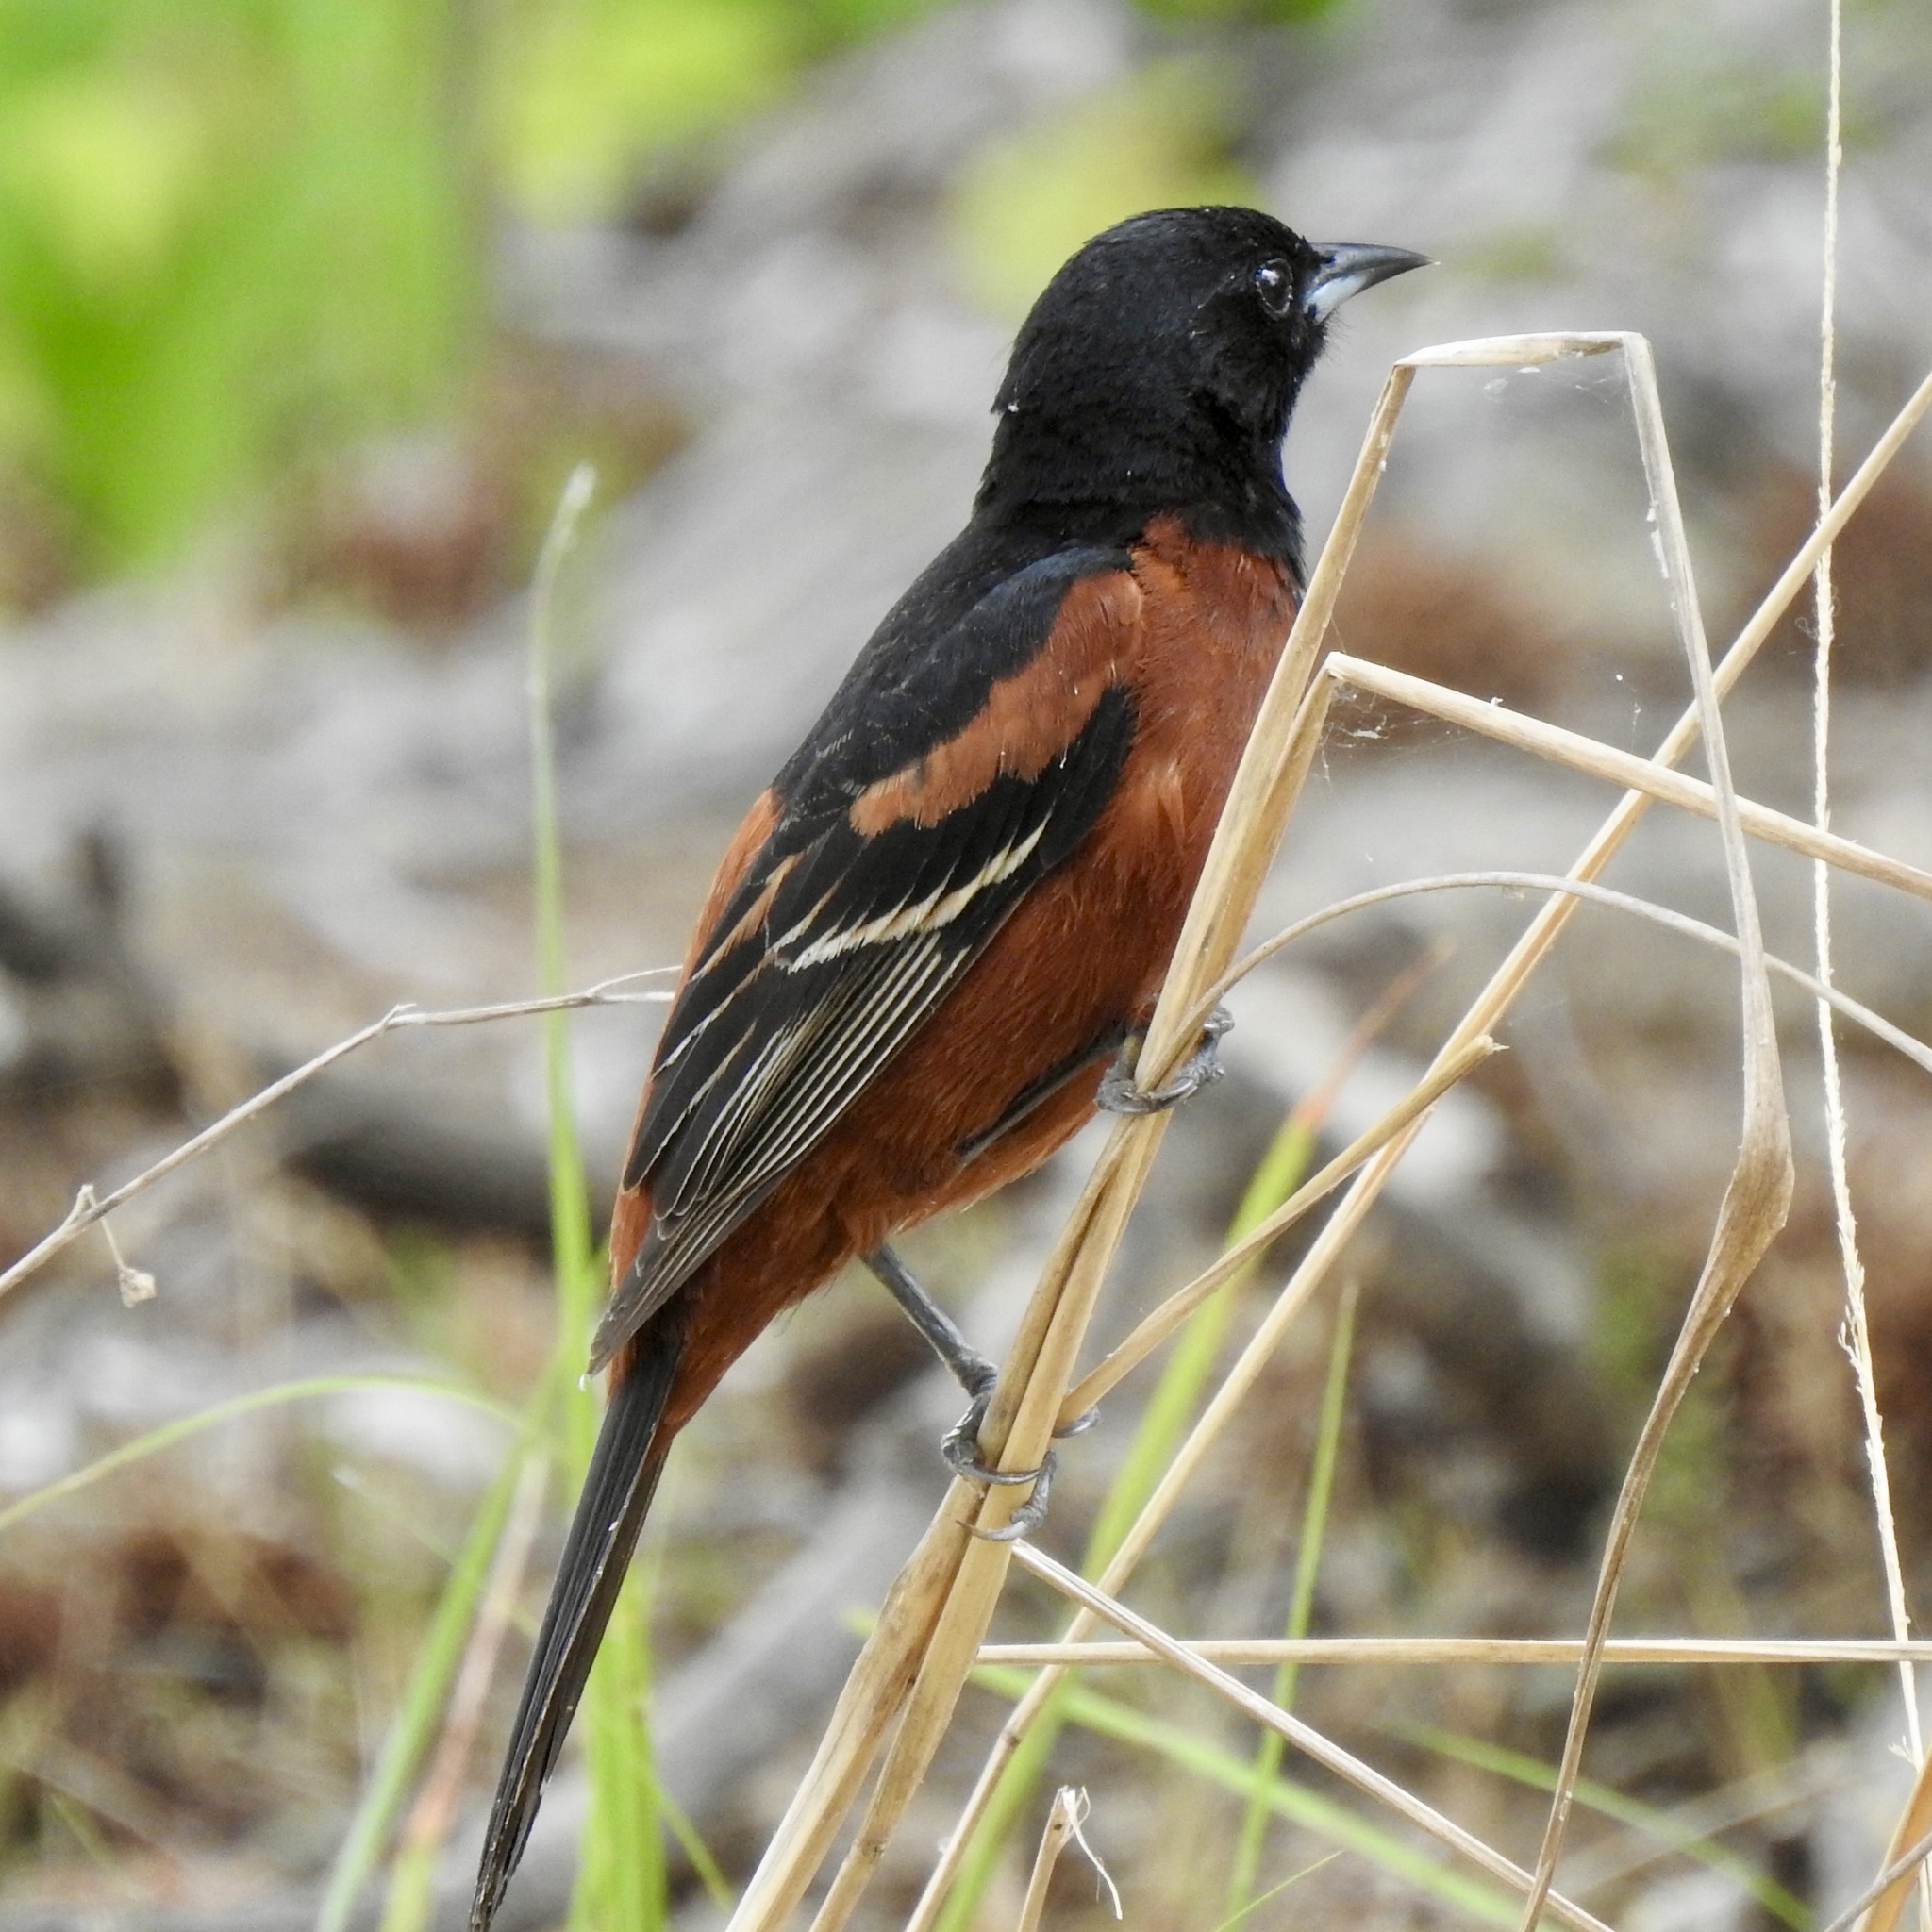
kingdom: Animalia
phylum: Chordata
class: Aves
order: Passeriformes
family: Icteridae
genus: Icterus
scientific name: Icterus spurius
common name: Orchard oriole
